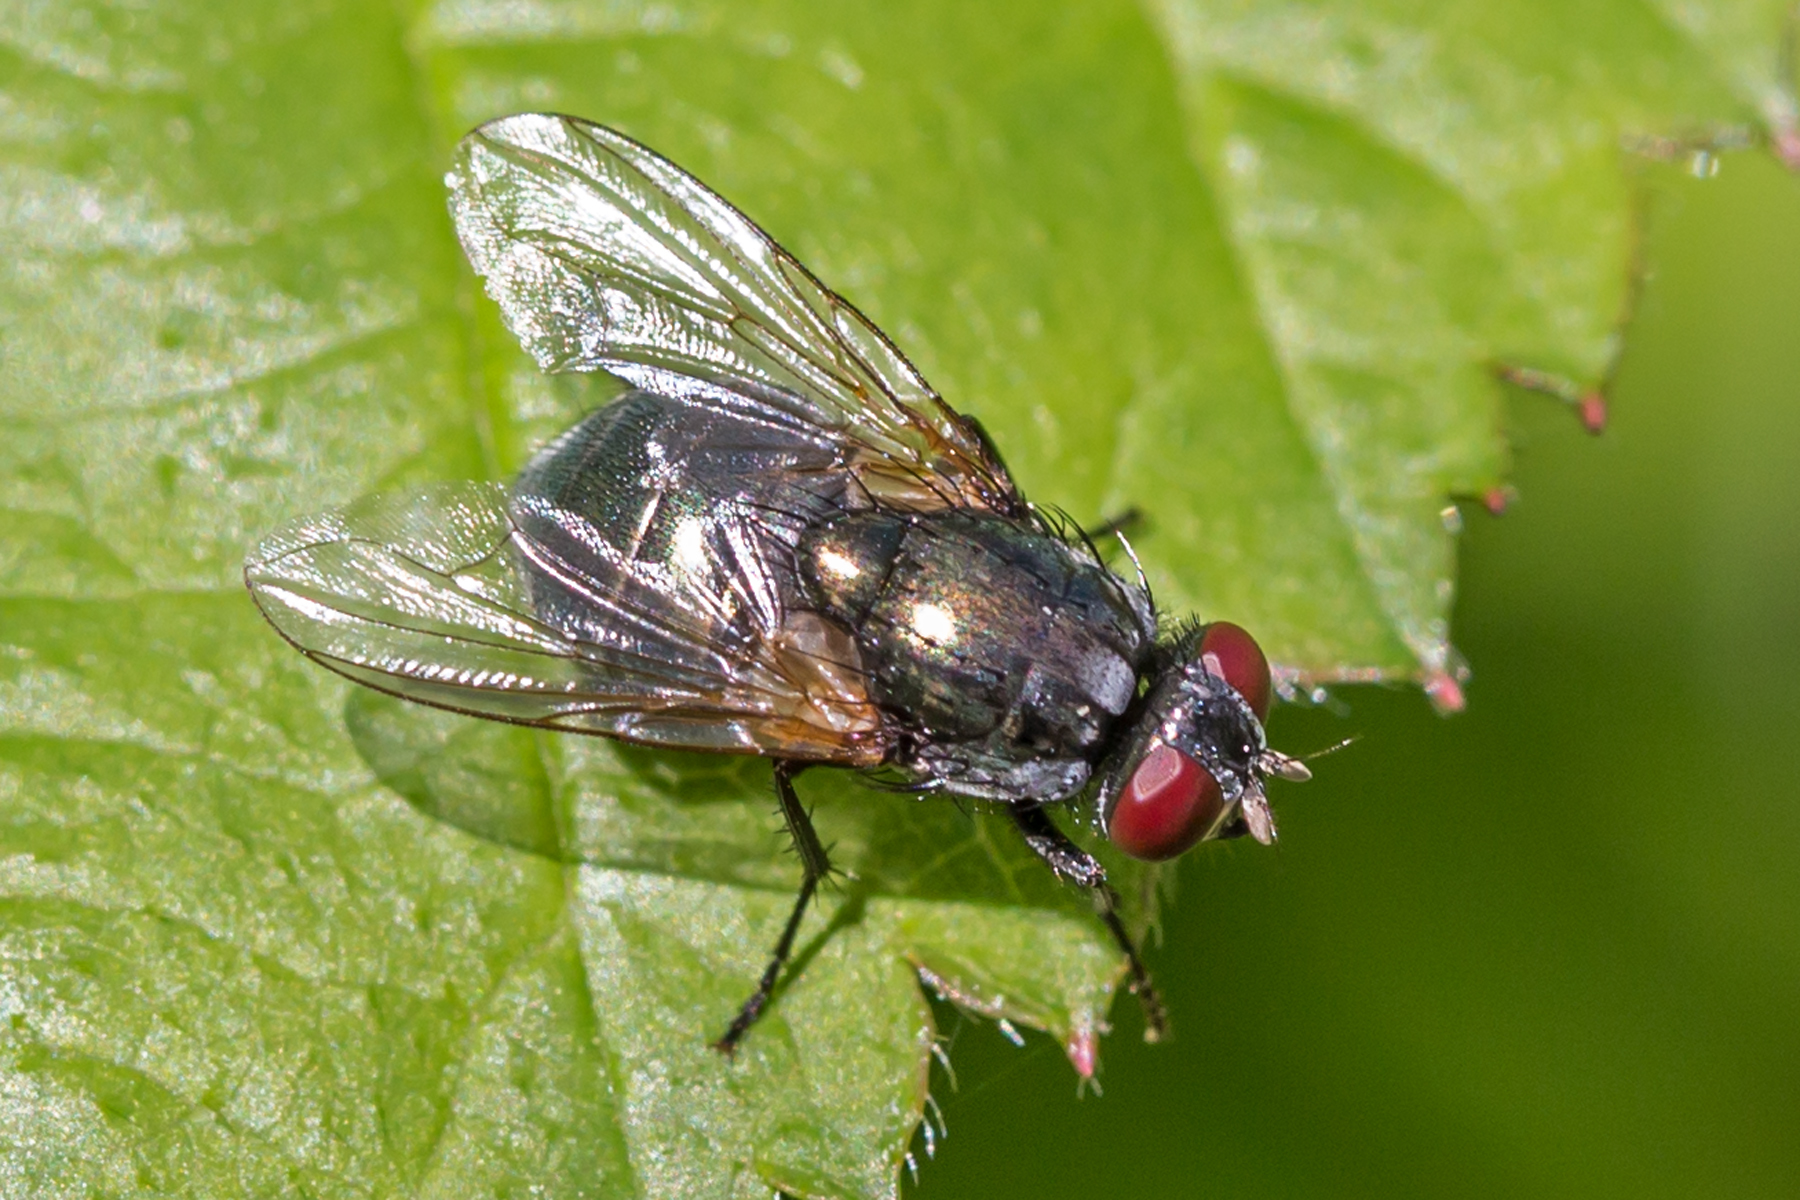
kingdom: Animalia
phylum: Arthropoda
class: Insecta
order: Diptera
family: Muscidae
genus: Eudasyphora
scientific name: Eudasyphora cyanicolor
